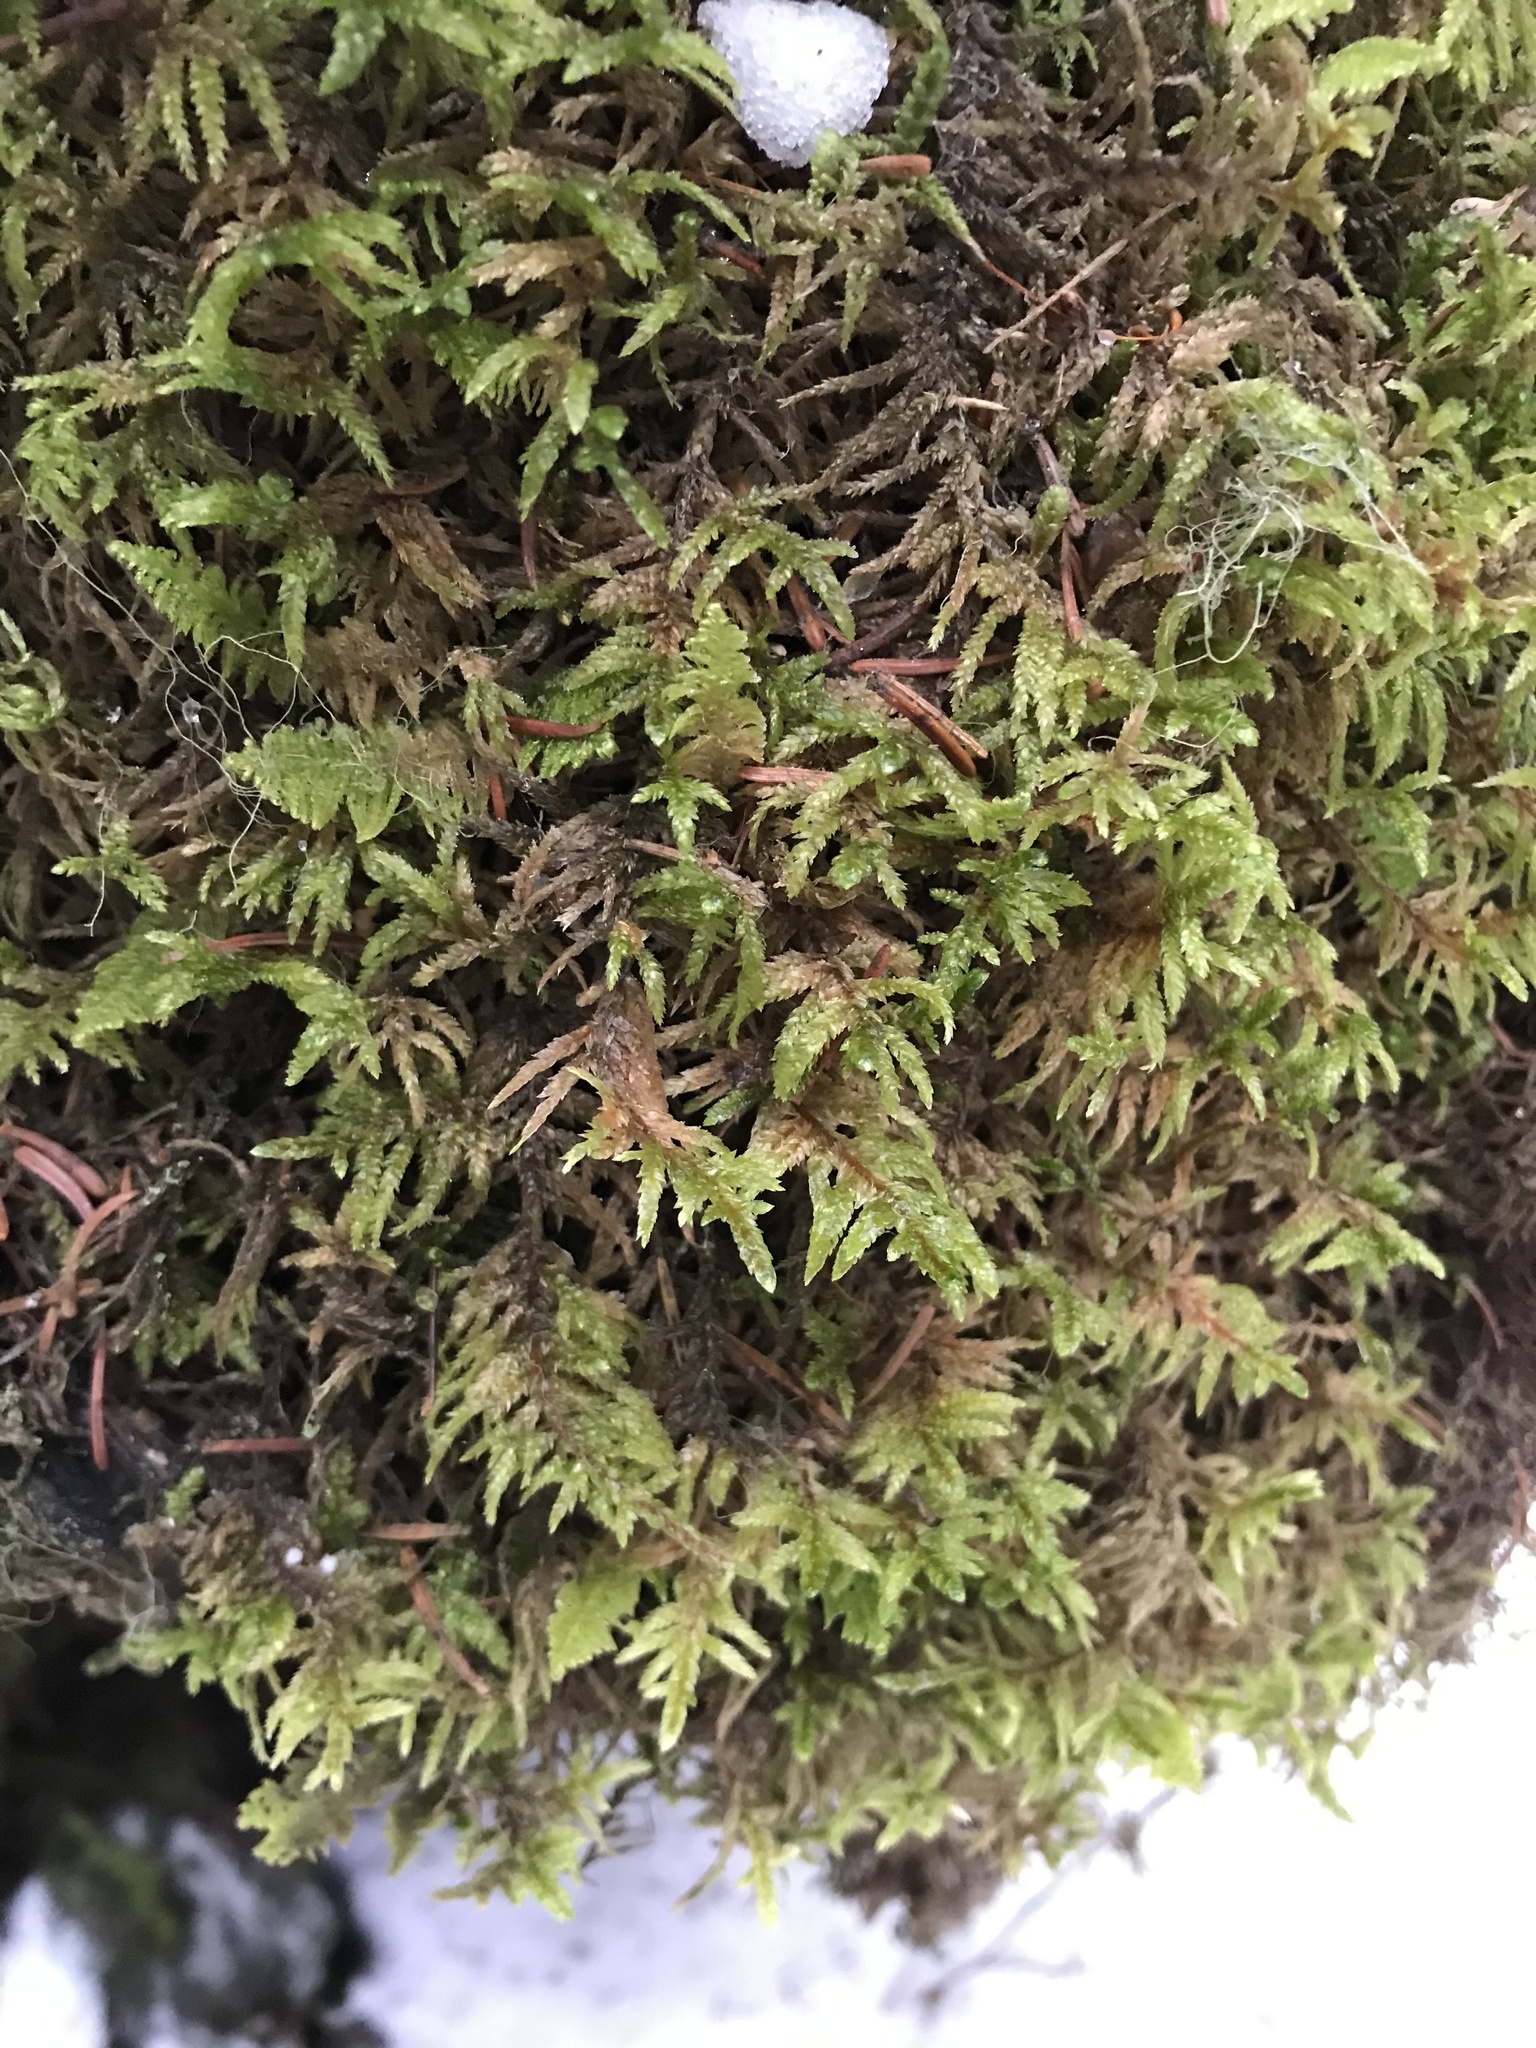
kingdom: Plantae
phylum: Bryophyta
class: Bryopsida
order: Hypnales
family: Hylocomiaceae
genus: Pleurozium
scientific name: Pleurozium schreberi
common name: Red-stemmed feather moss
